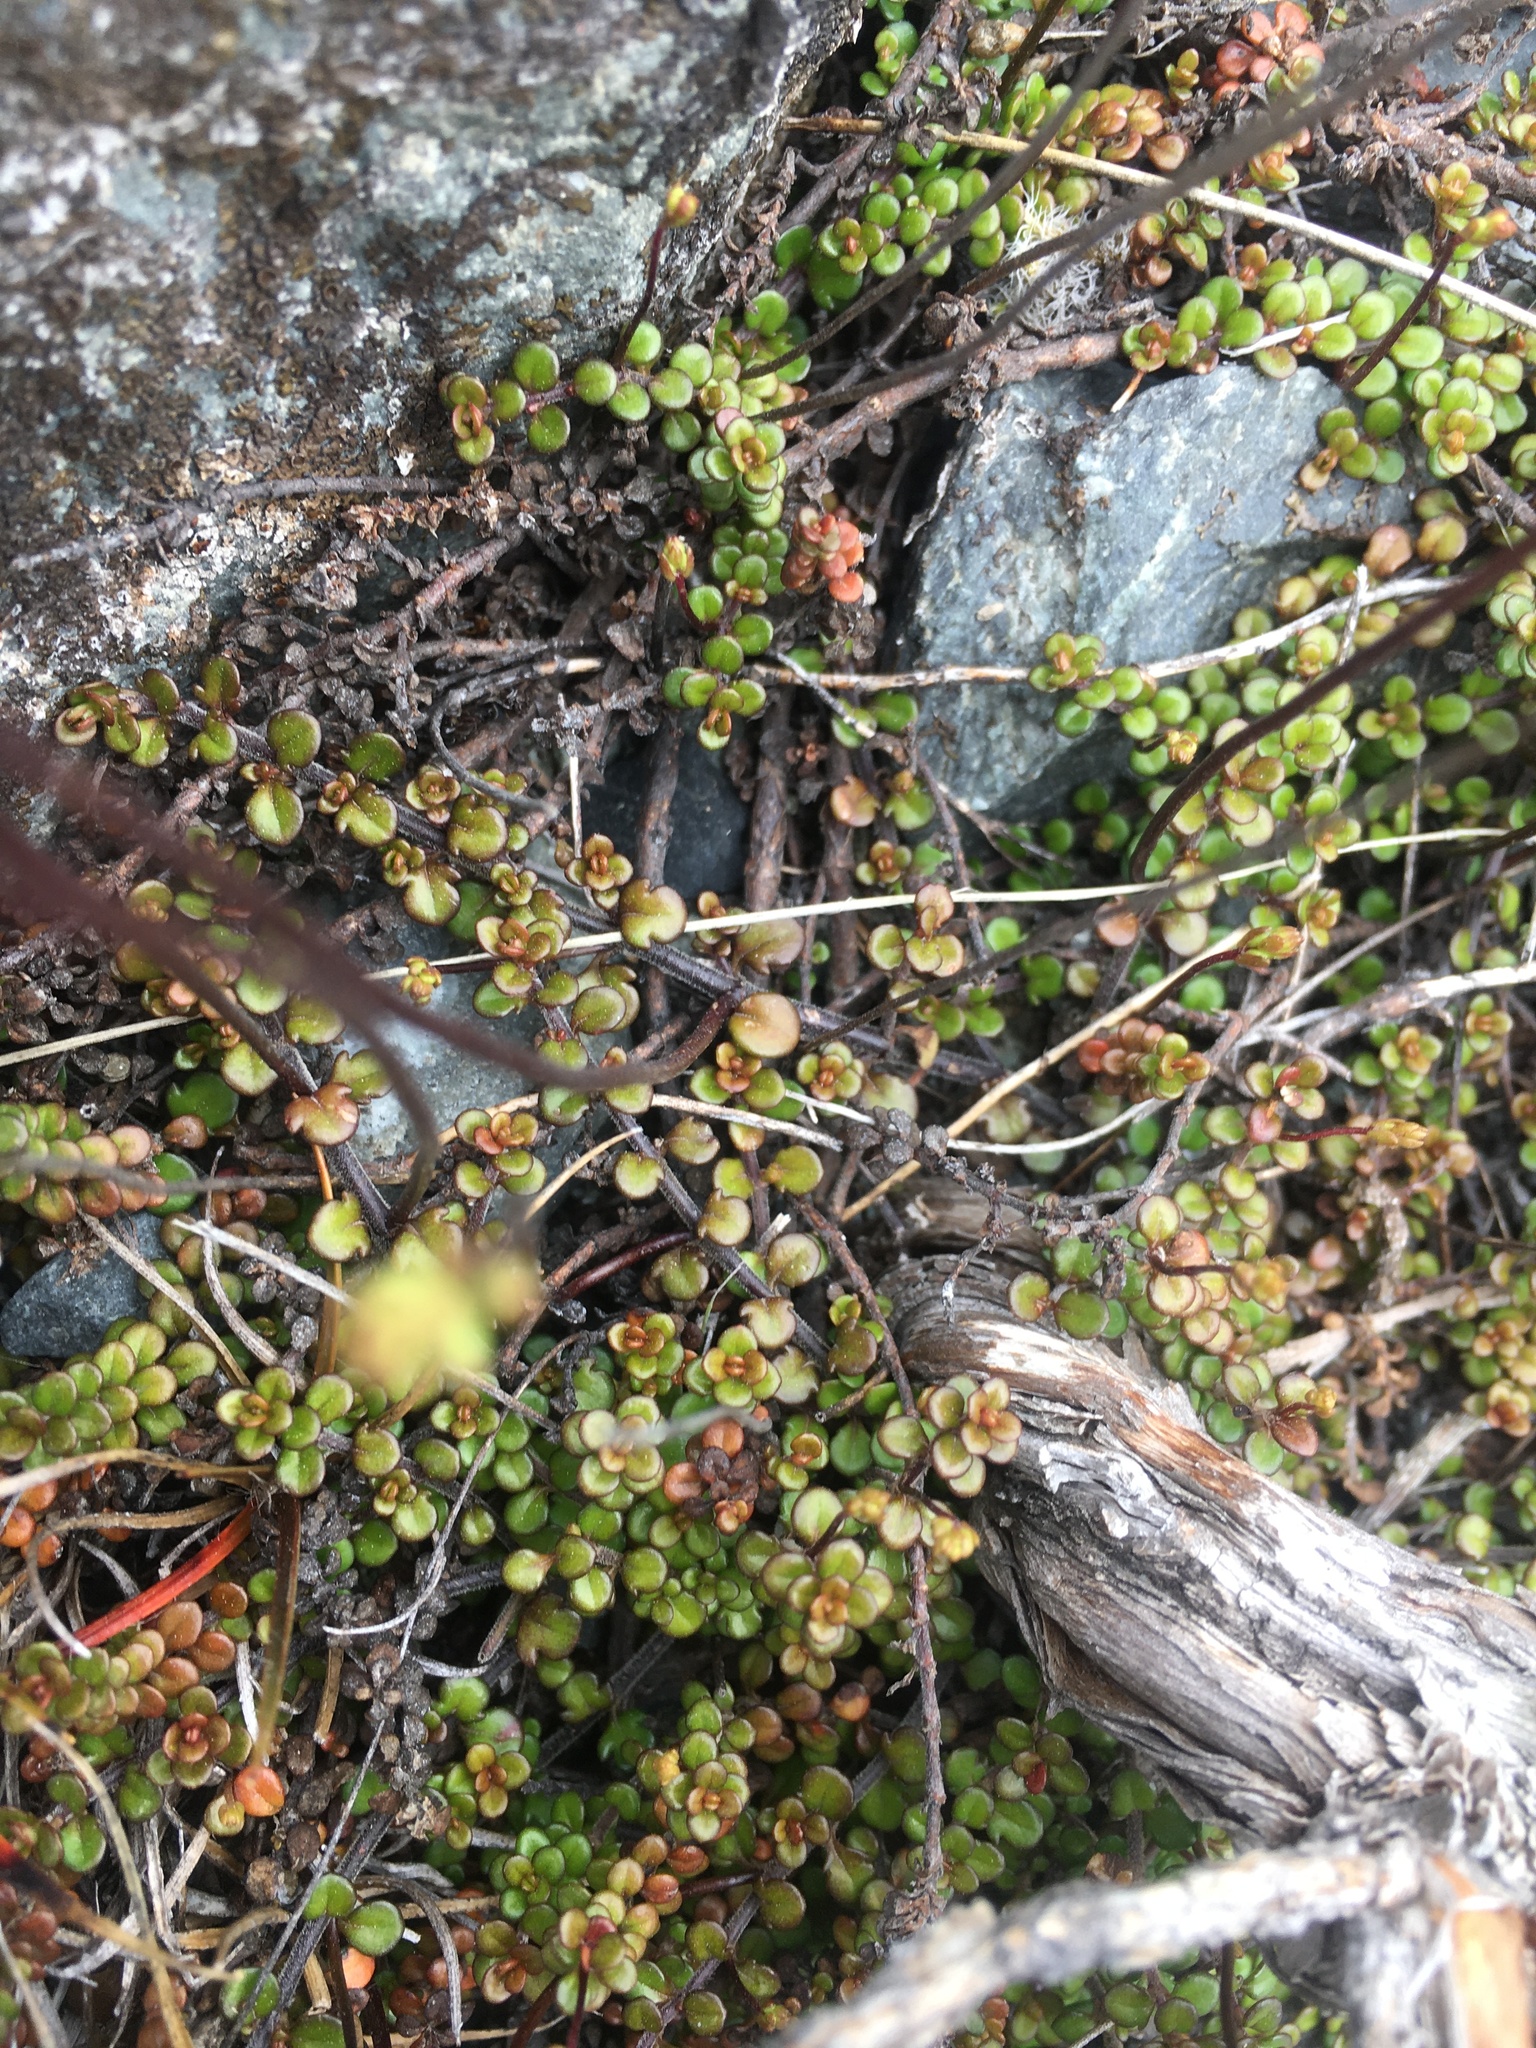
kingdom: Plantae
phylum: Tracheophyta
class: Magnoliopsida
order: Lamiales
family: Plantaginaceae
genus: Veronica
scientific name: Veronica decora
